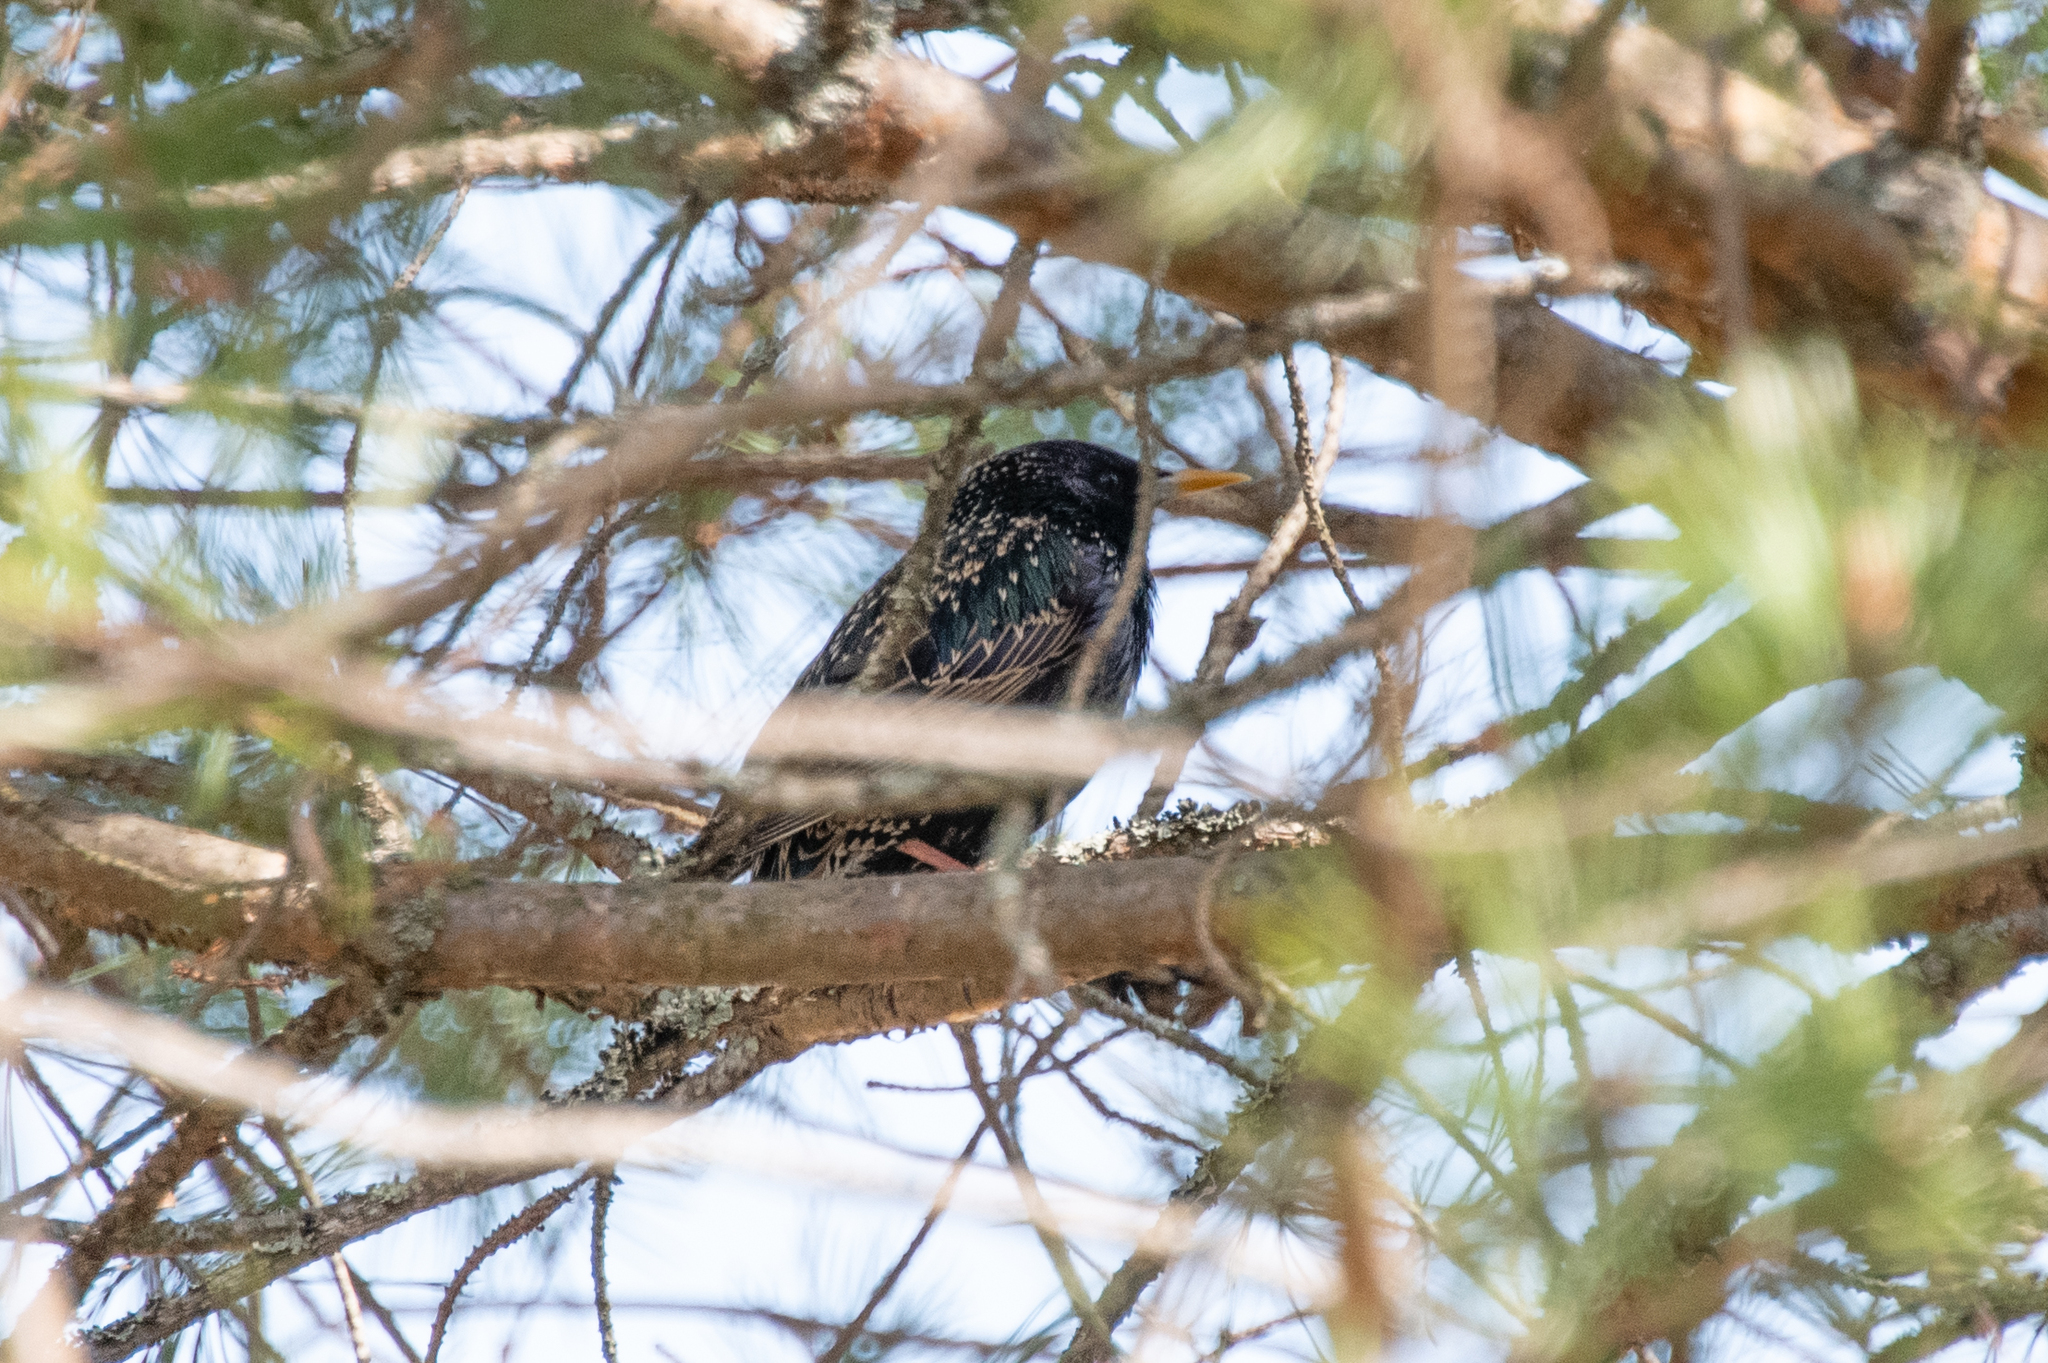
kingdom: Animalia
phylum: Chordata
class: Aves
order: Passeriformes
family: Sturnidae
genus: Sturnus
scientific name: Sturnus vulgaris
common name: Common starling
